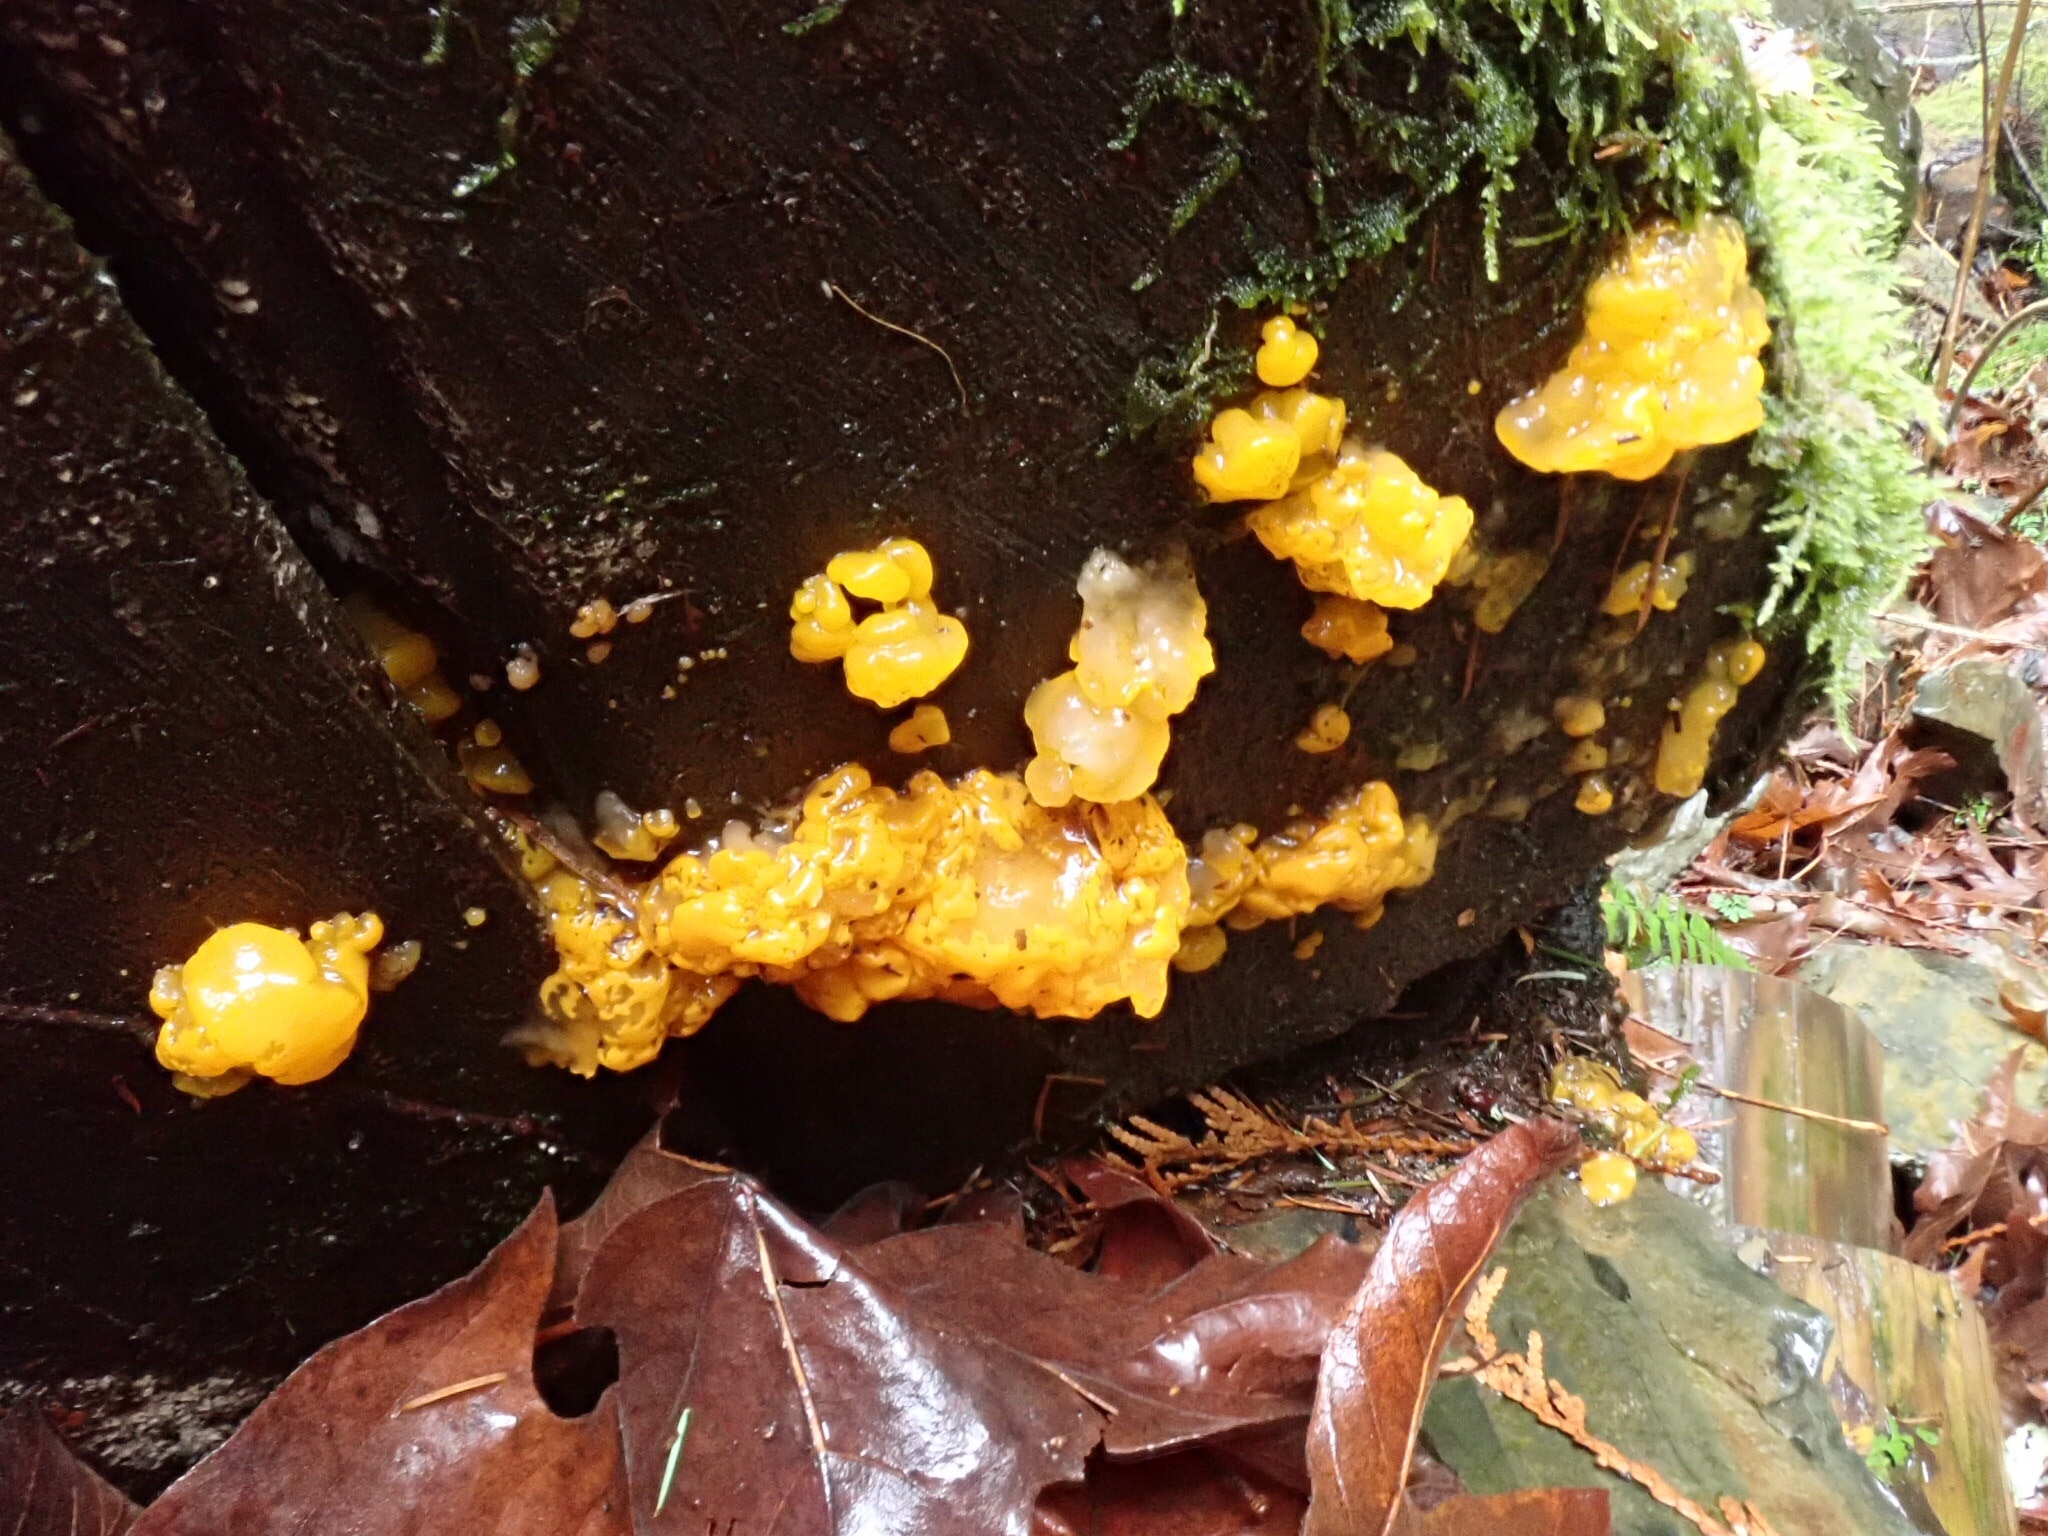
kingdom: Fungi
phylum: Basidiomycota
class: Dacrymycetes
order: Dacrymycetales
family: Dacrymycetaceae
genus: Dacrymyces
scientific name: Dacrymyces chrysospermus
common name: Orange jelly spot
